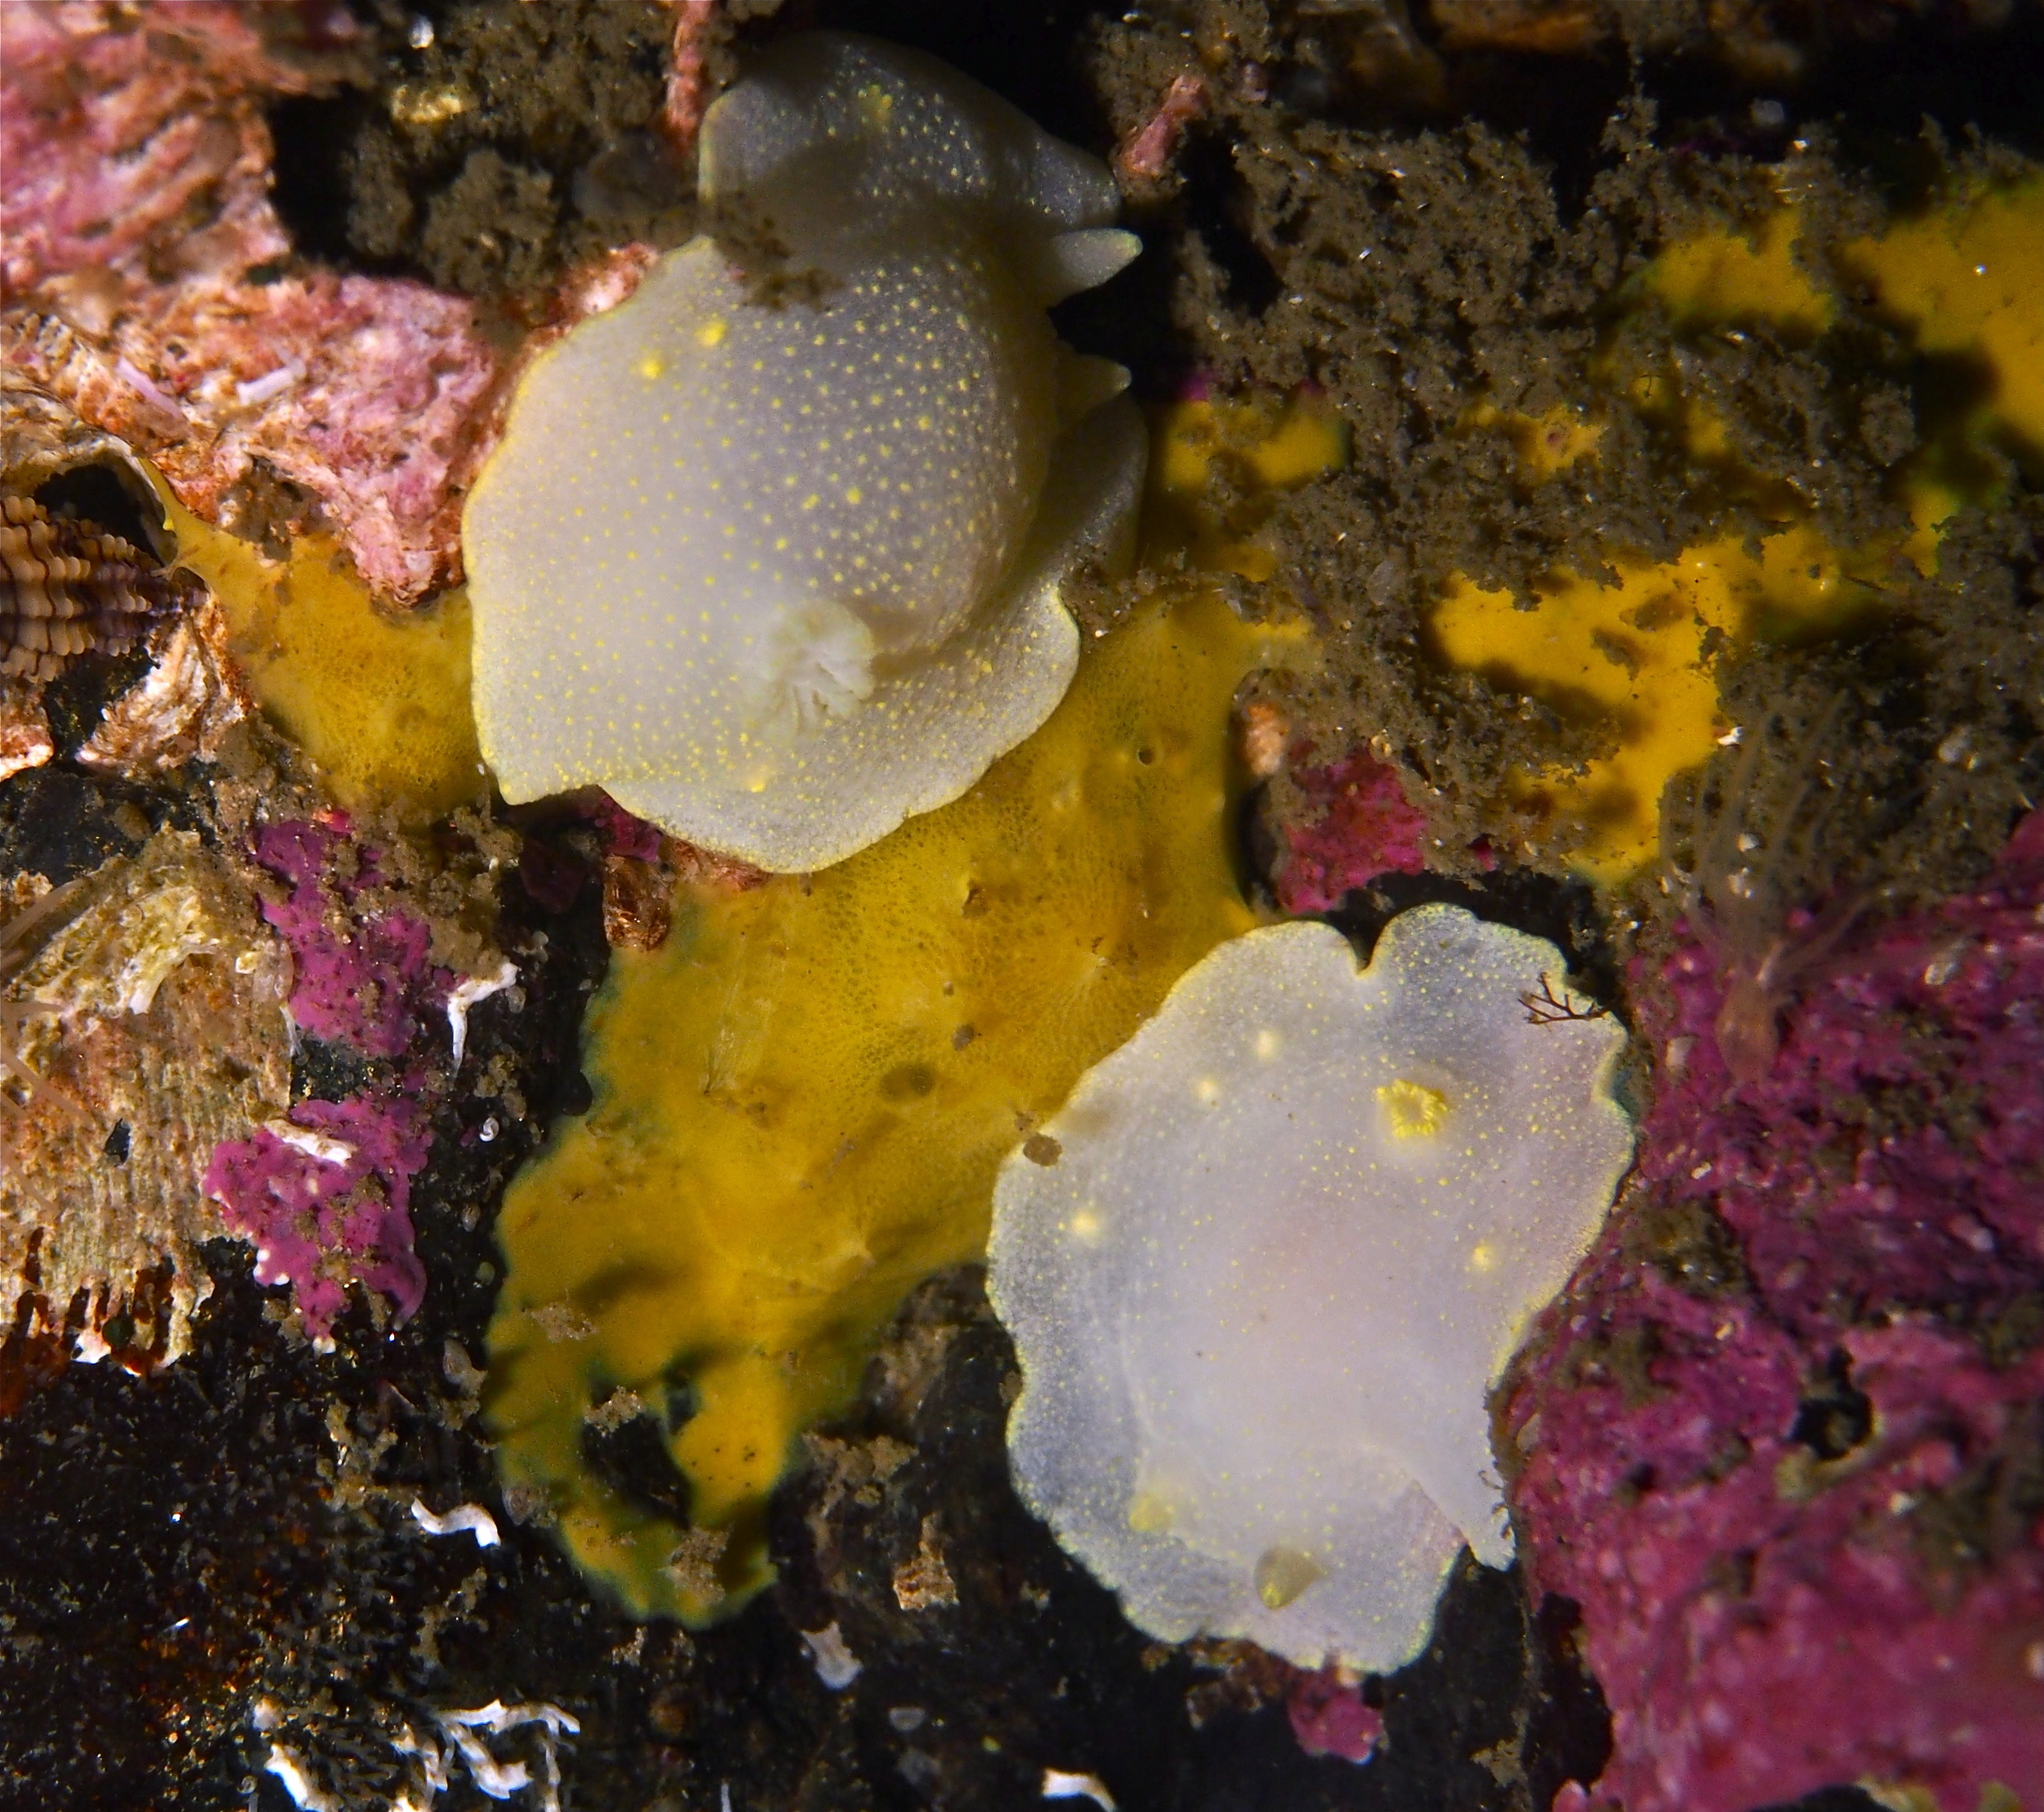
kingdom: Animalia
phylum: Mollusca
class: Gastropoda
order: Nudibranchia
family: Cadlinidae
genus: Cadlina
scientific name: Cadlina laevis
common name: White atlantic cadlina
